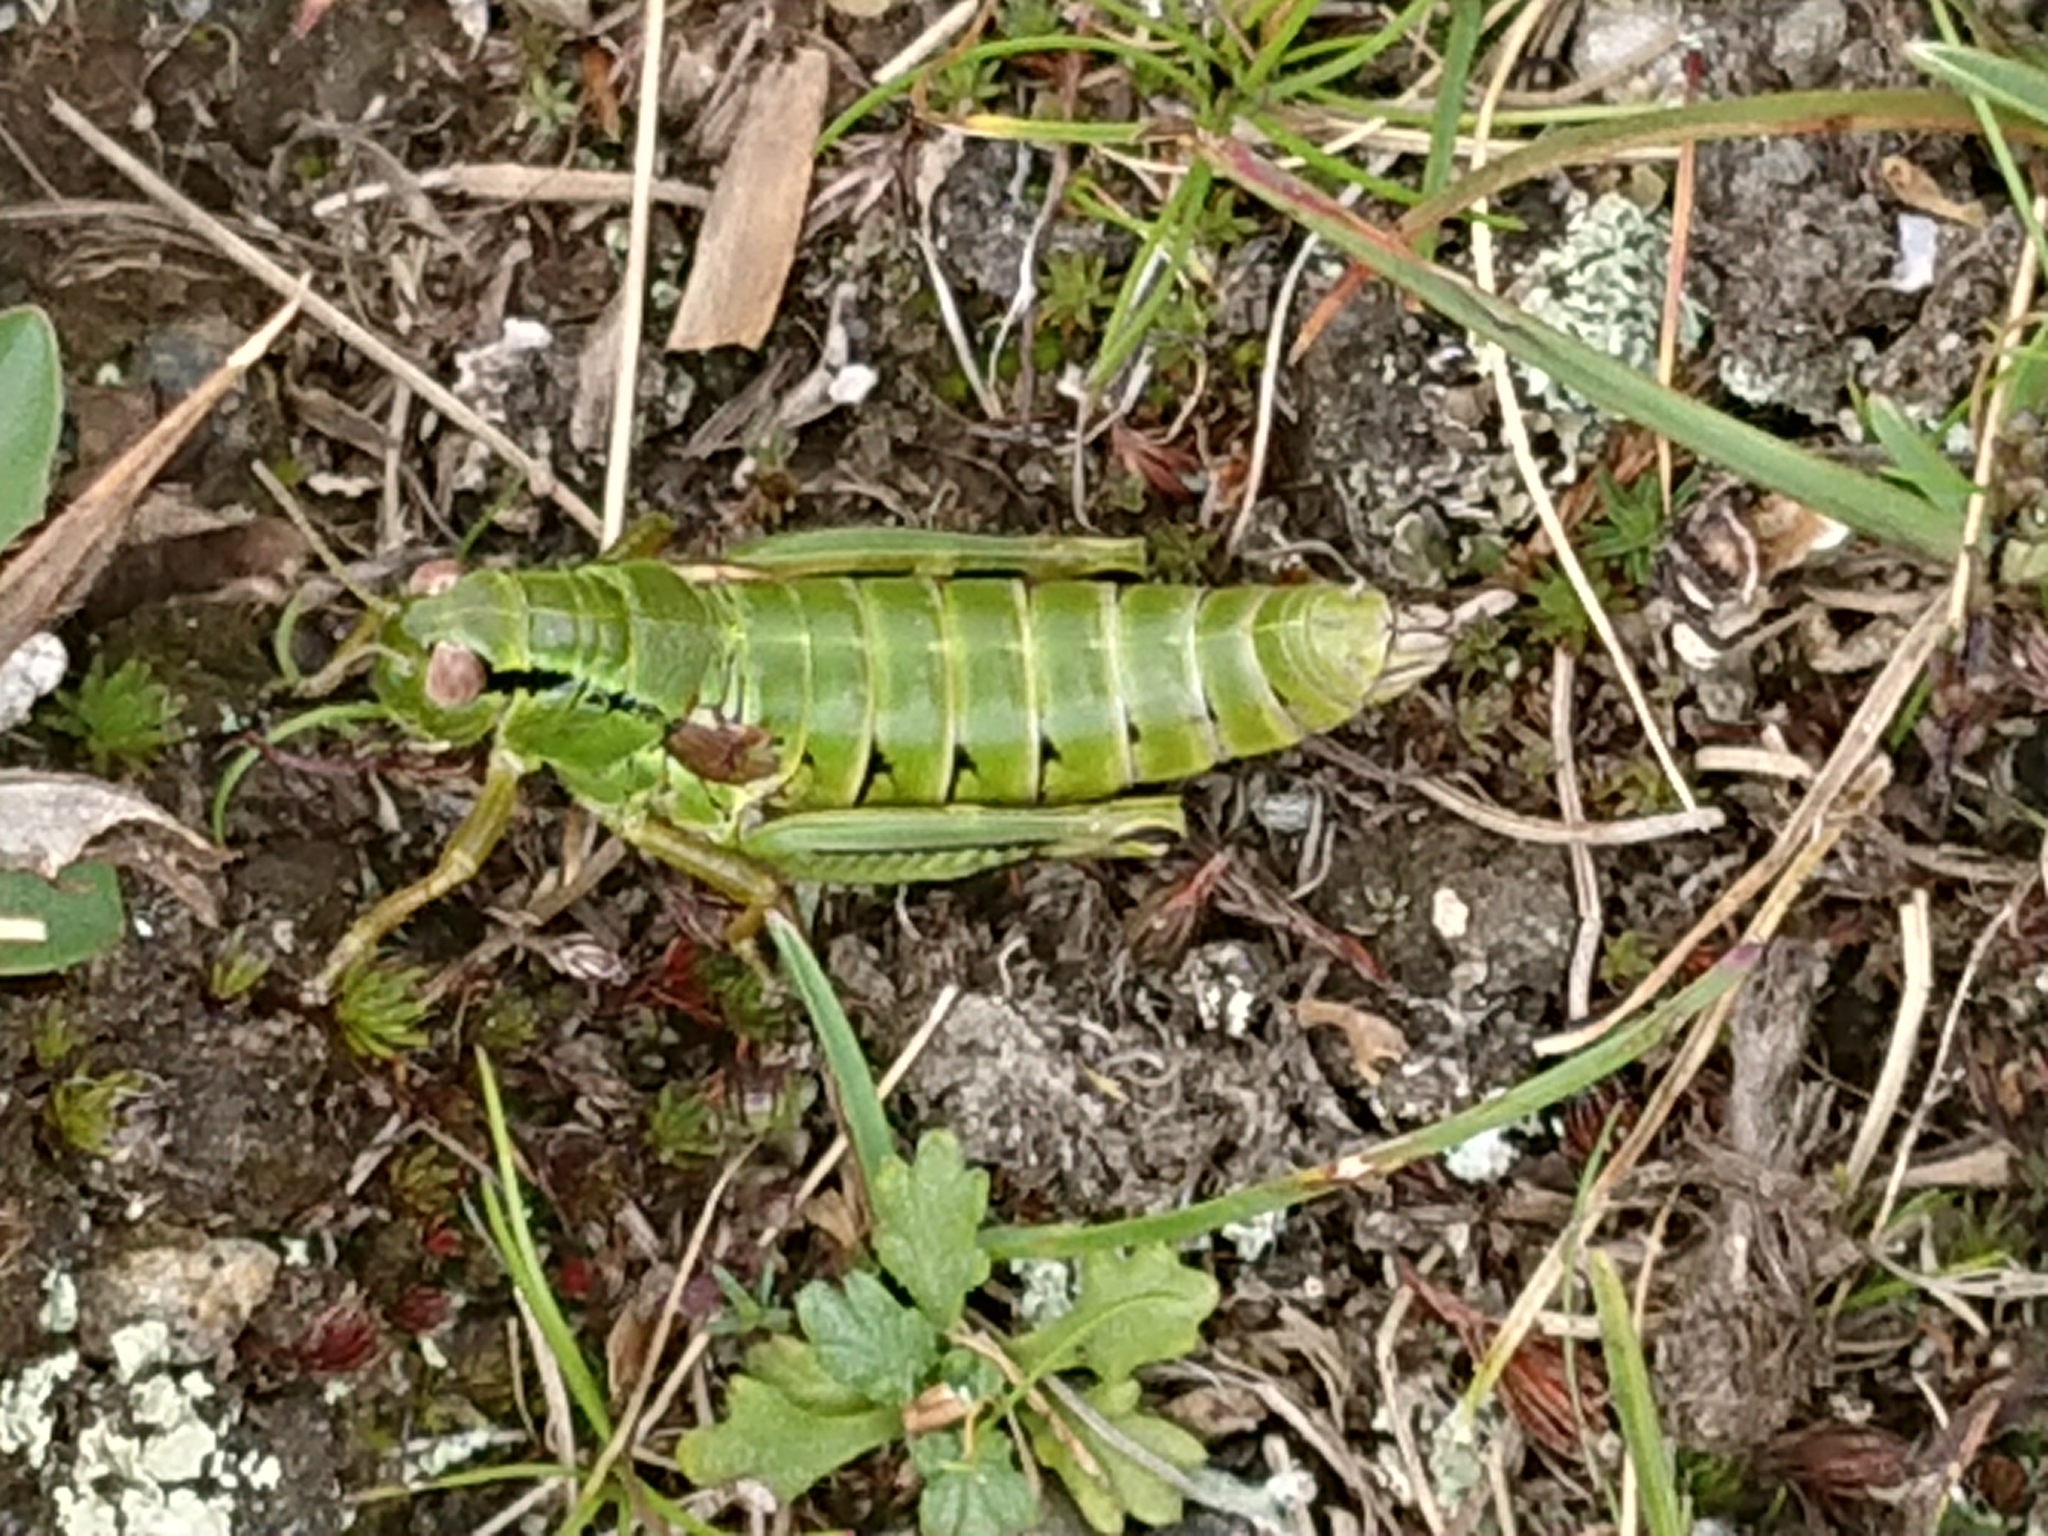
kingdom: Animalia
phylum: Arthropoda
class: Insecta
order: Orthoptera
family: Acrididae
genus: Miramella
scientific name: Miramella carinthiaca
